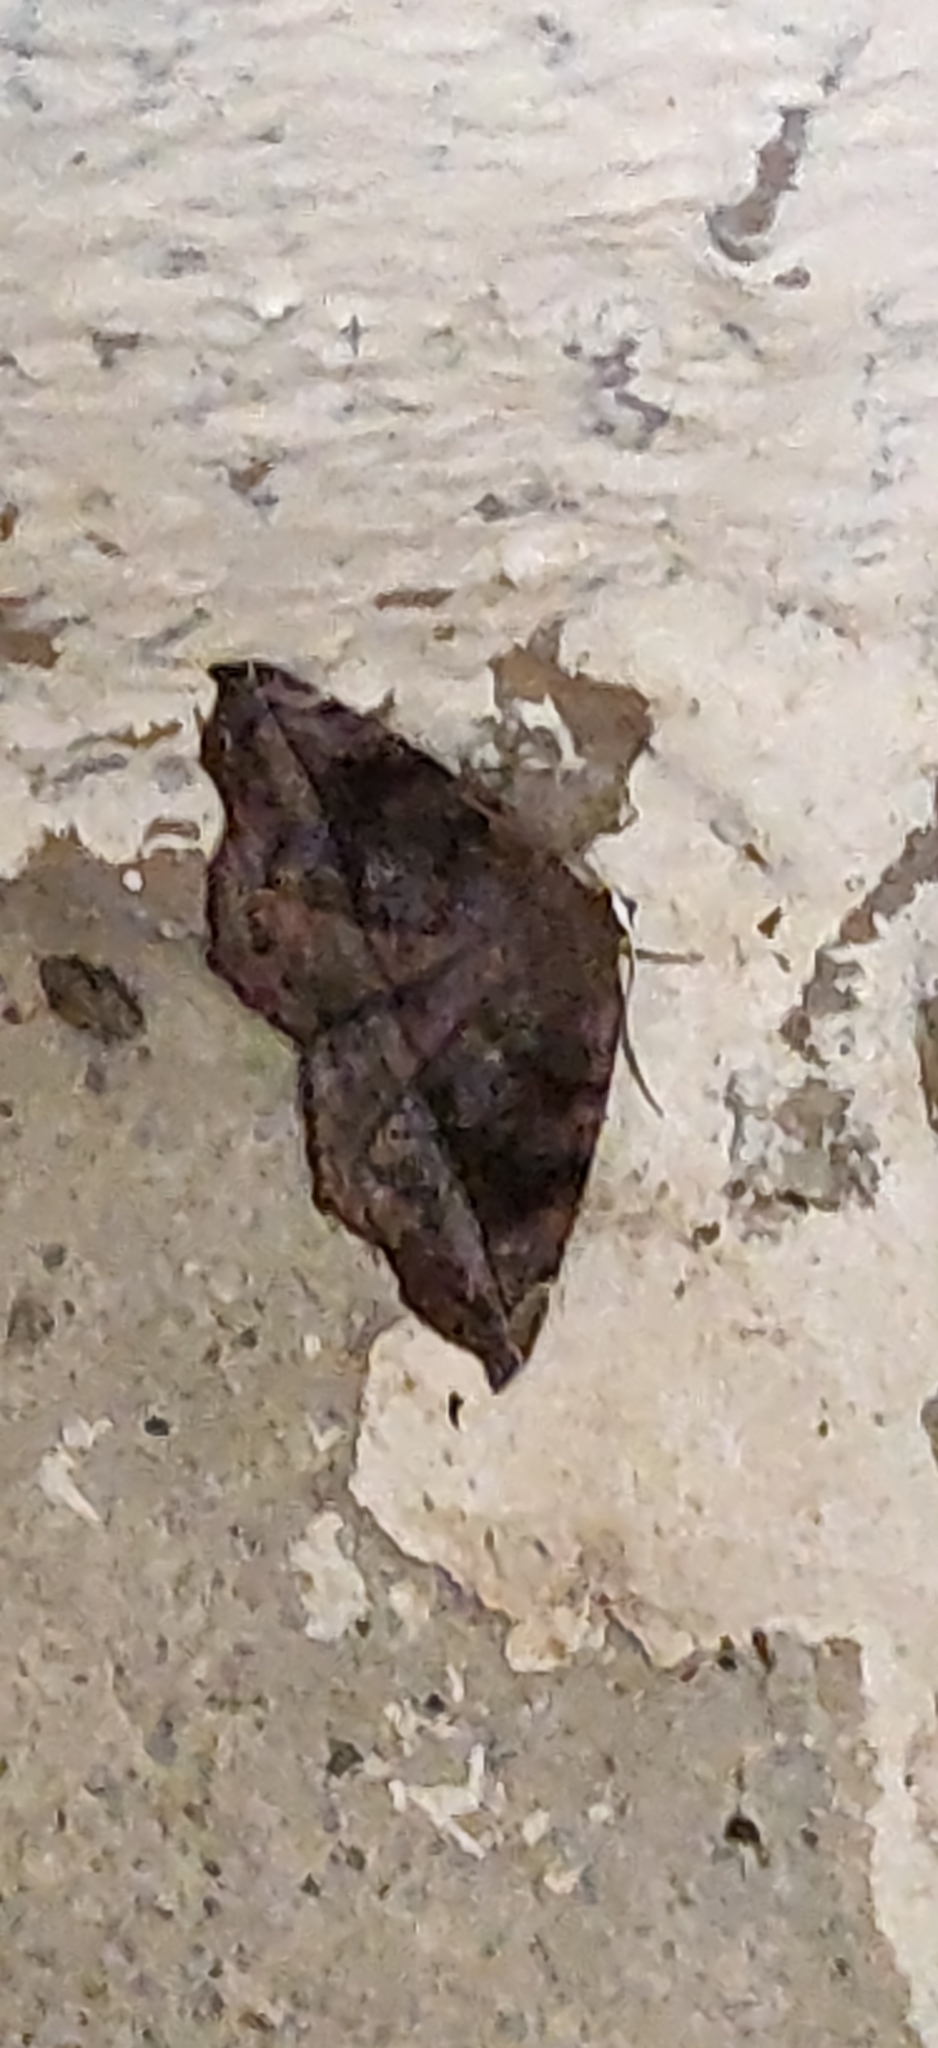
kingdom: Animalia
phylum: Arthropoda
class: Insecta
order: Lepidoptera
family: Geometridae
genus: Eutrapela
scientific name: Eutrapela clemataria
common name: Curved-toothed geometer
